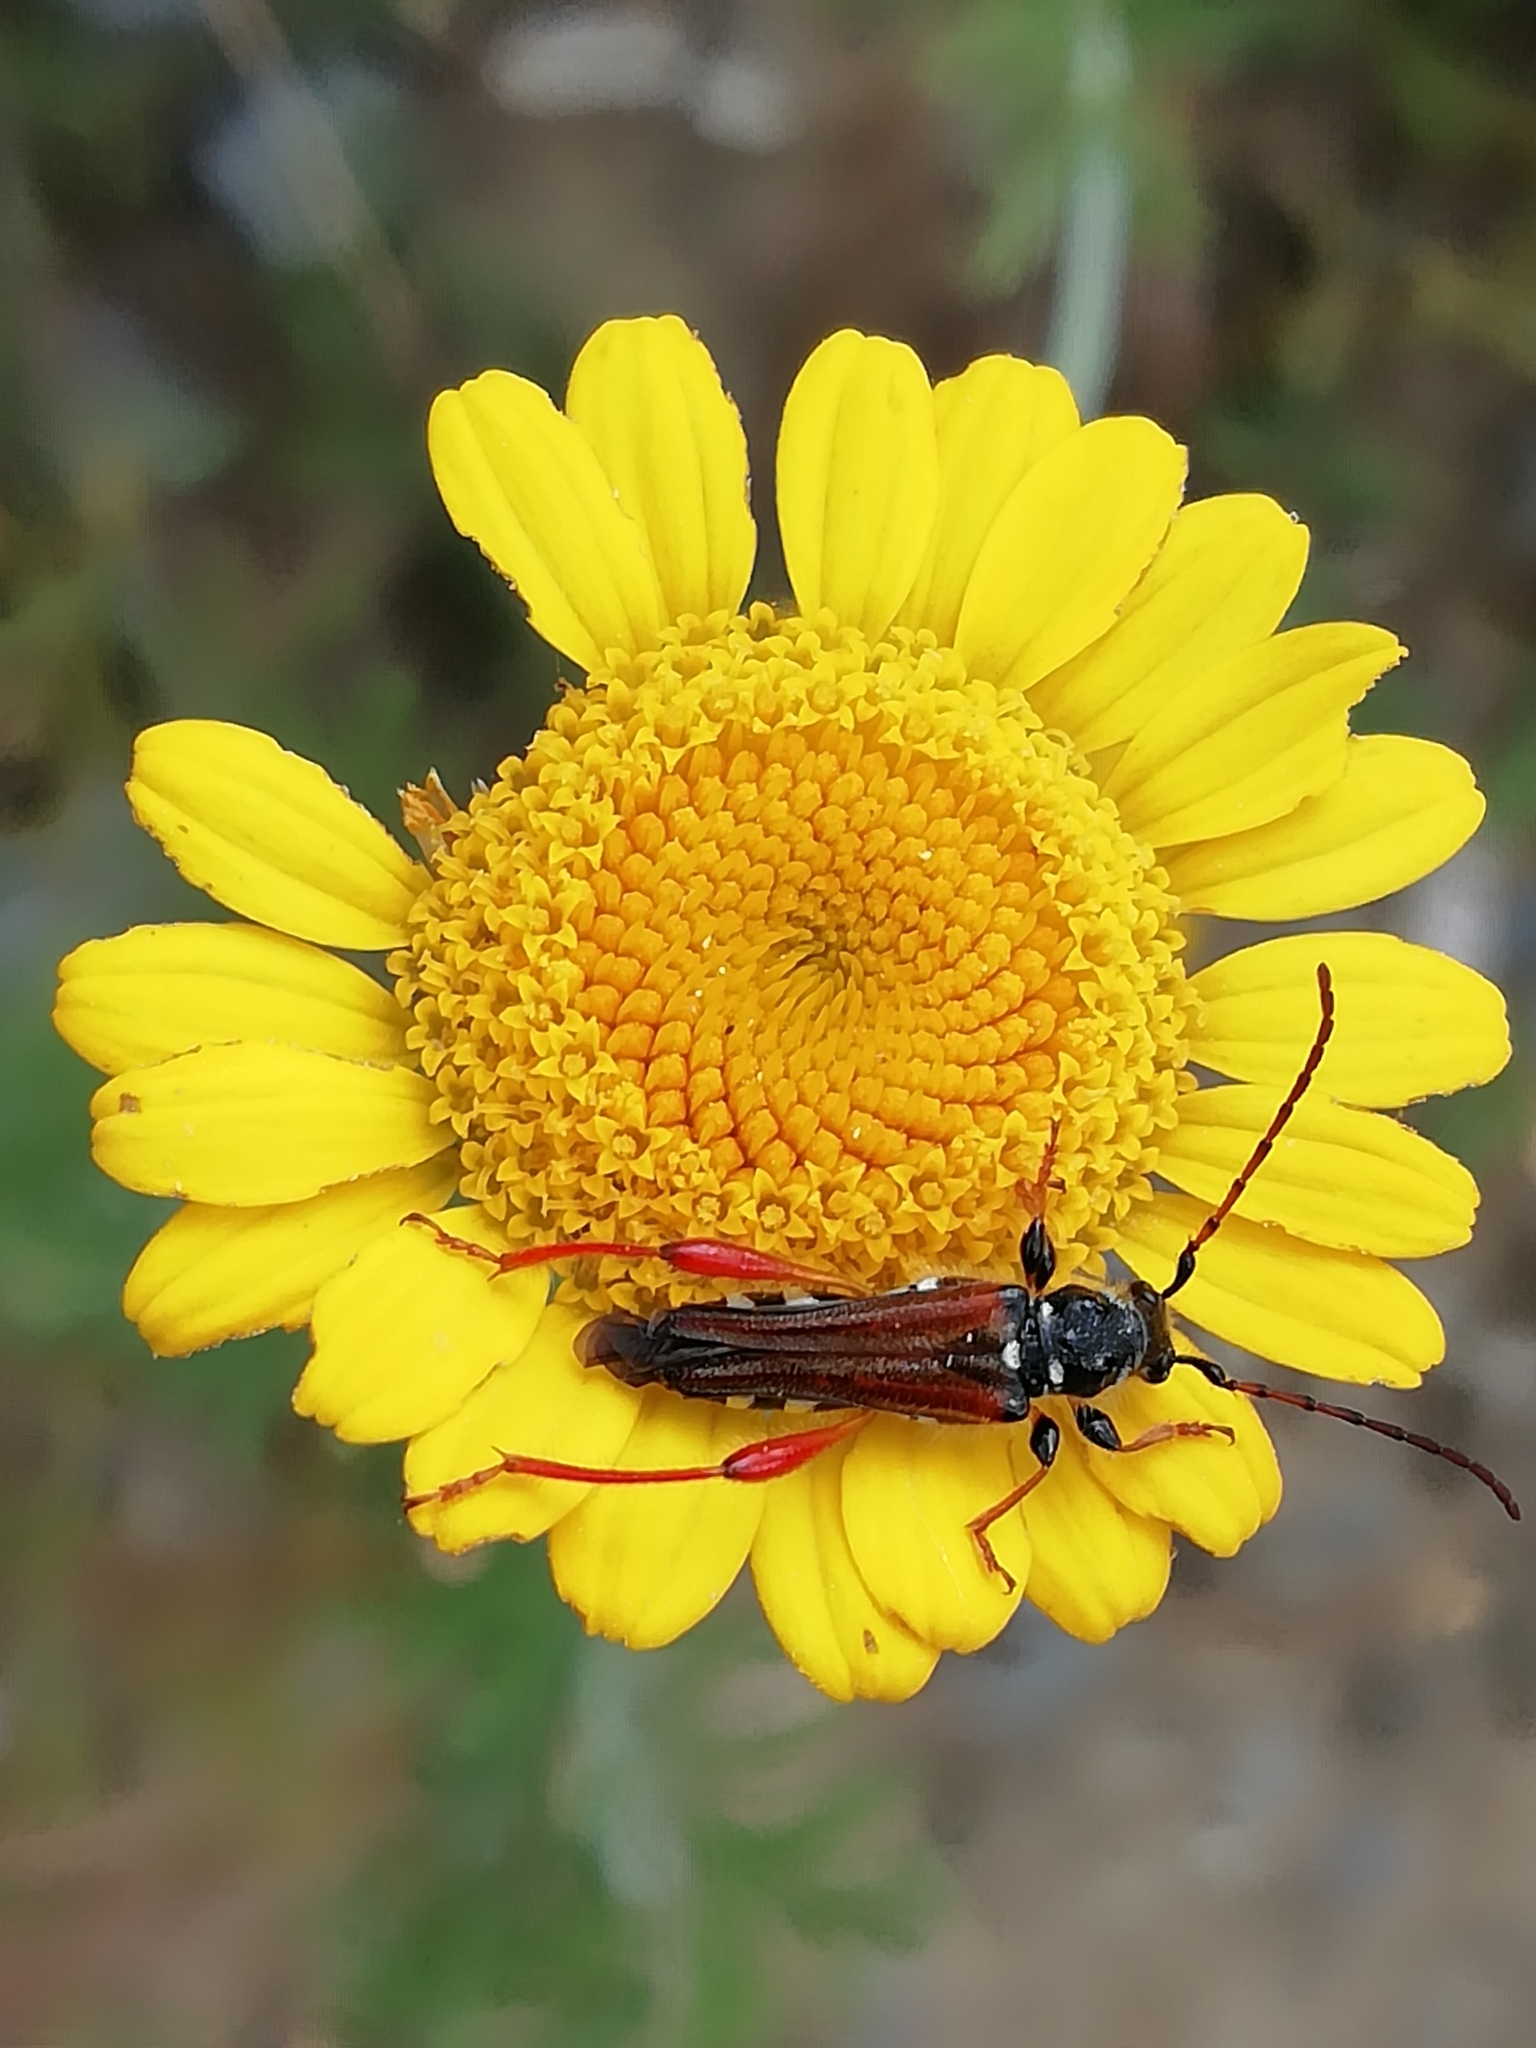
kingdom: Animalia
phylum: Arthropoda
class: Insecta
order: Coleoptera
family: Cerambycidae
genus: Stenopterus
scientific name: Stenopterus rufus
